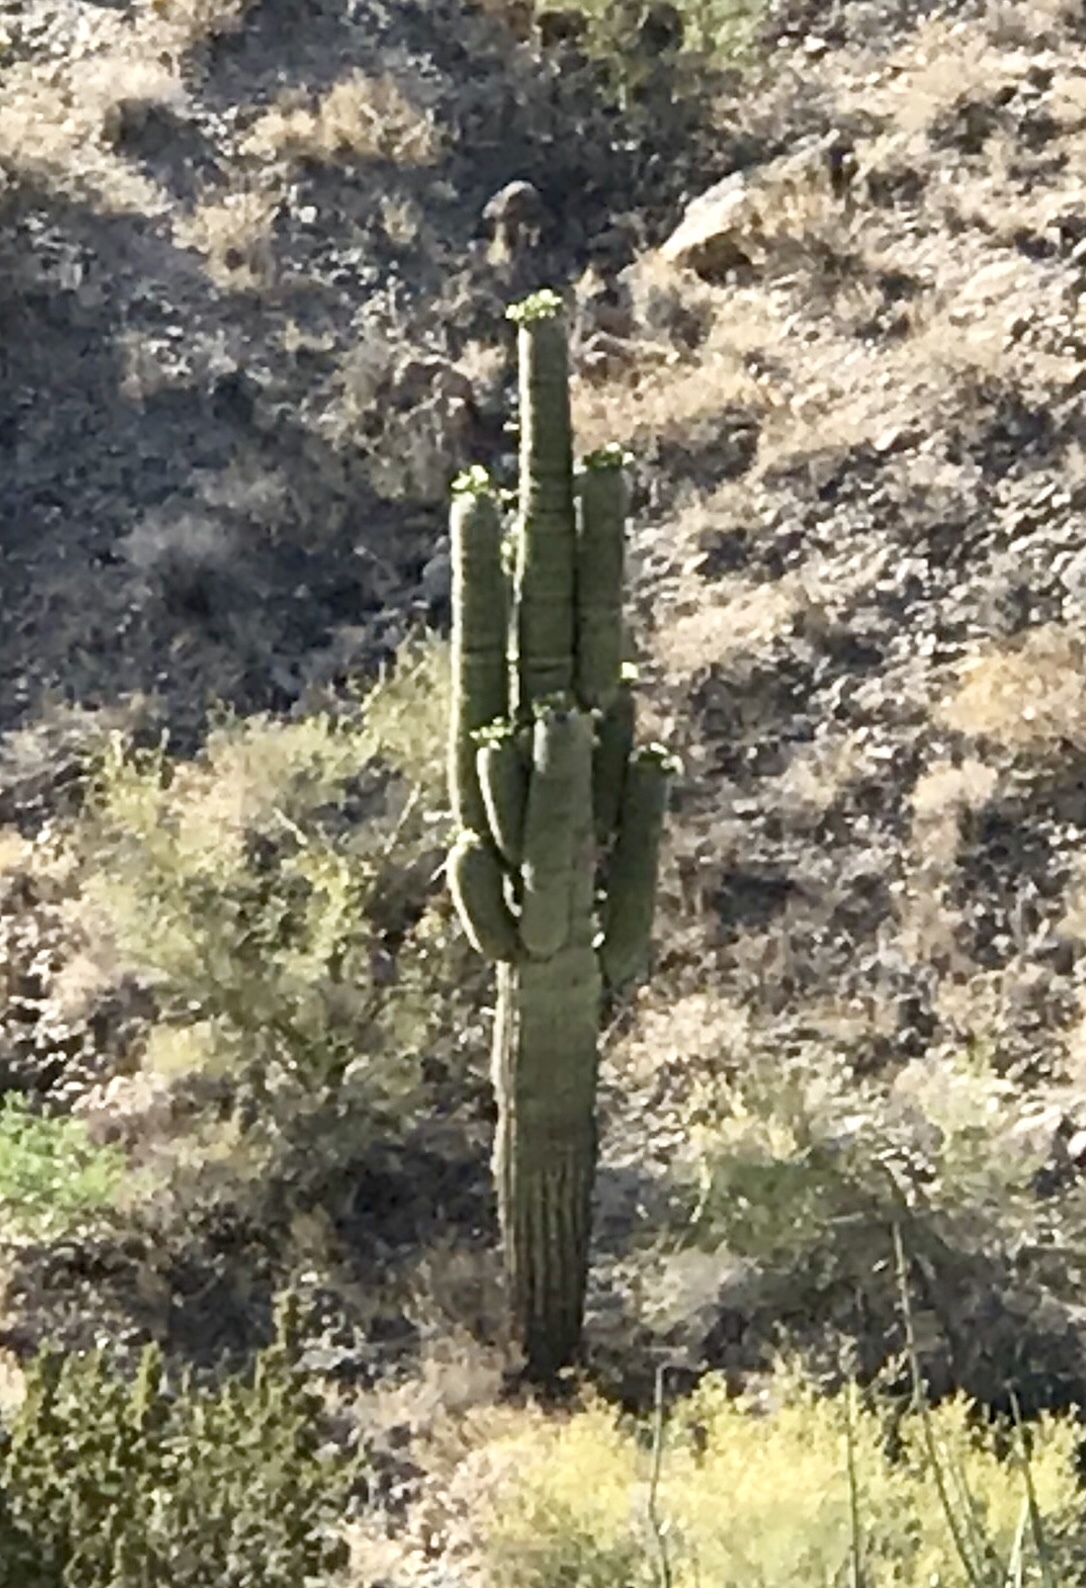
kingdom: Plantae
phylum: Tracheophyta
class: Magnoliopsida
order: Caryophyllales
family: Cactaceae
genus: Carnegiea
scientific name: Carnegiea gigantea
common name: Saguaro
